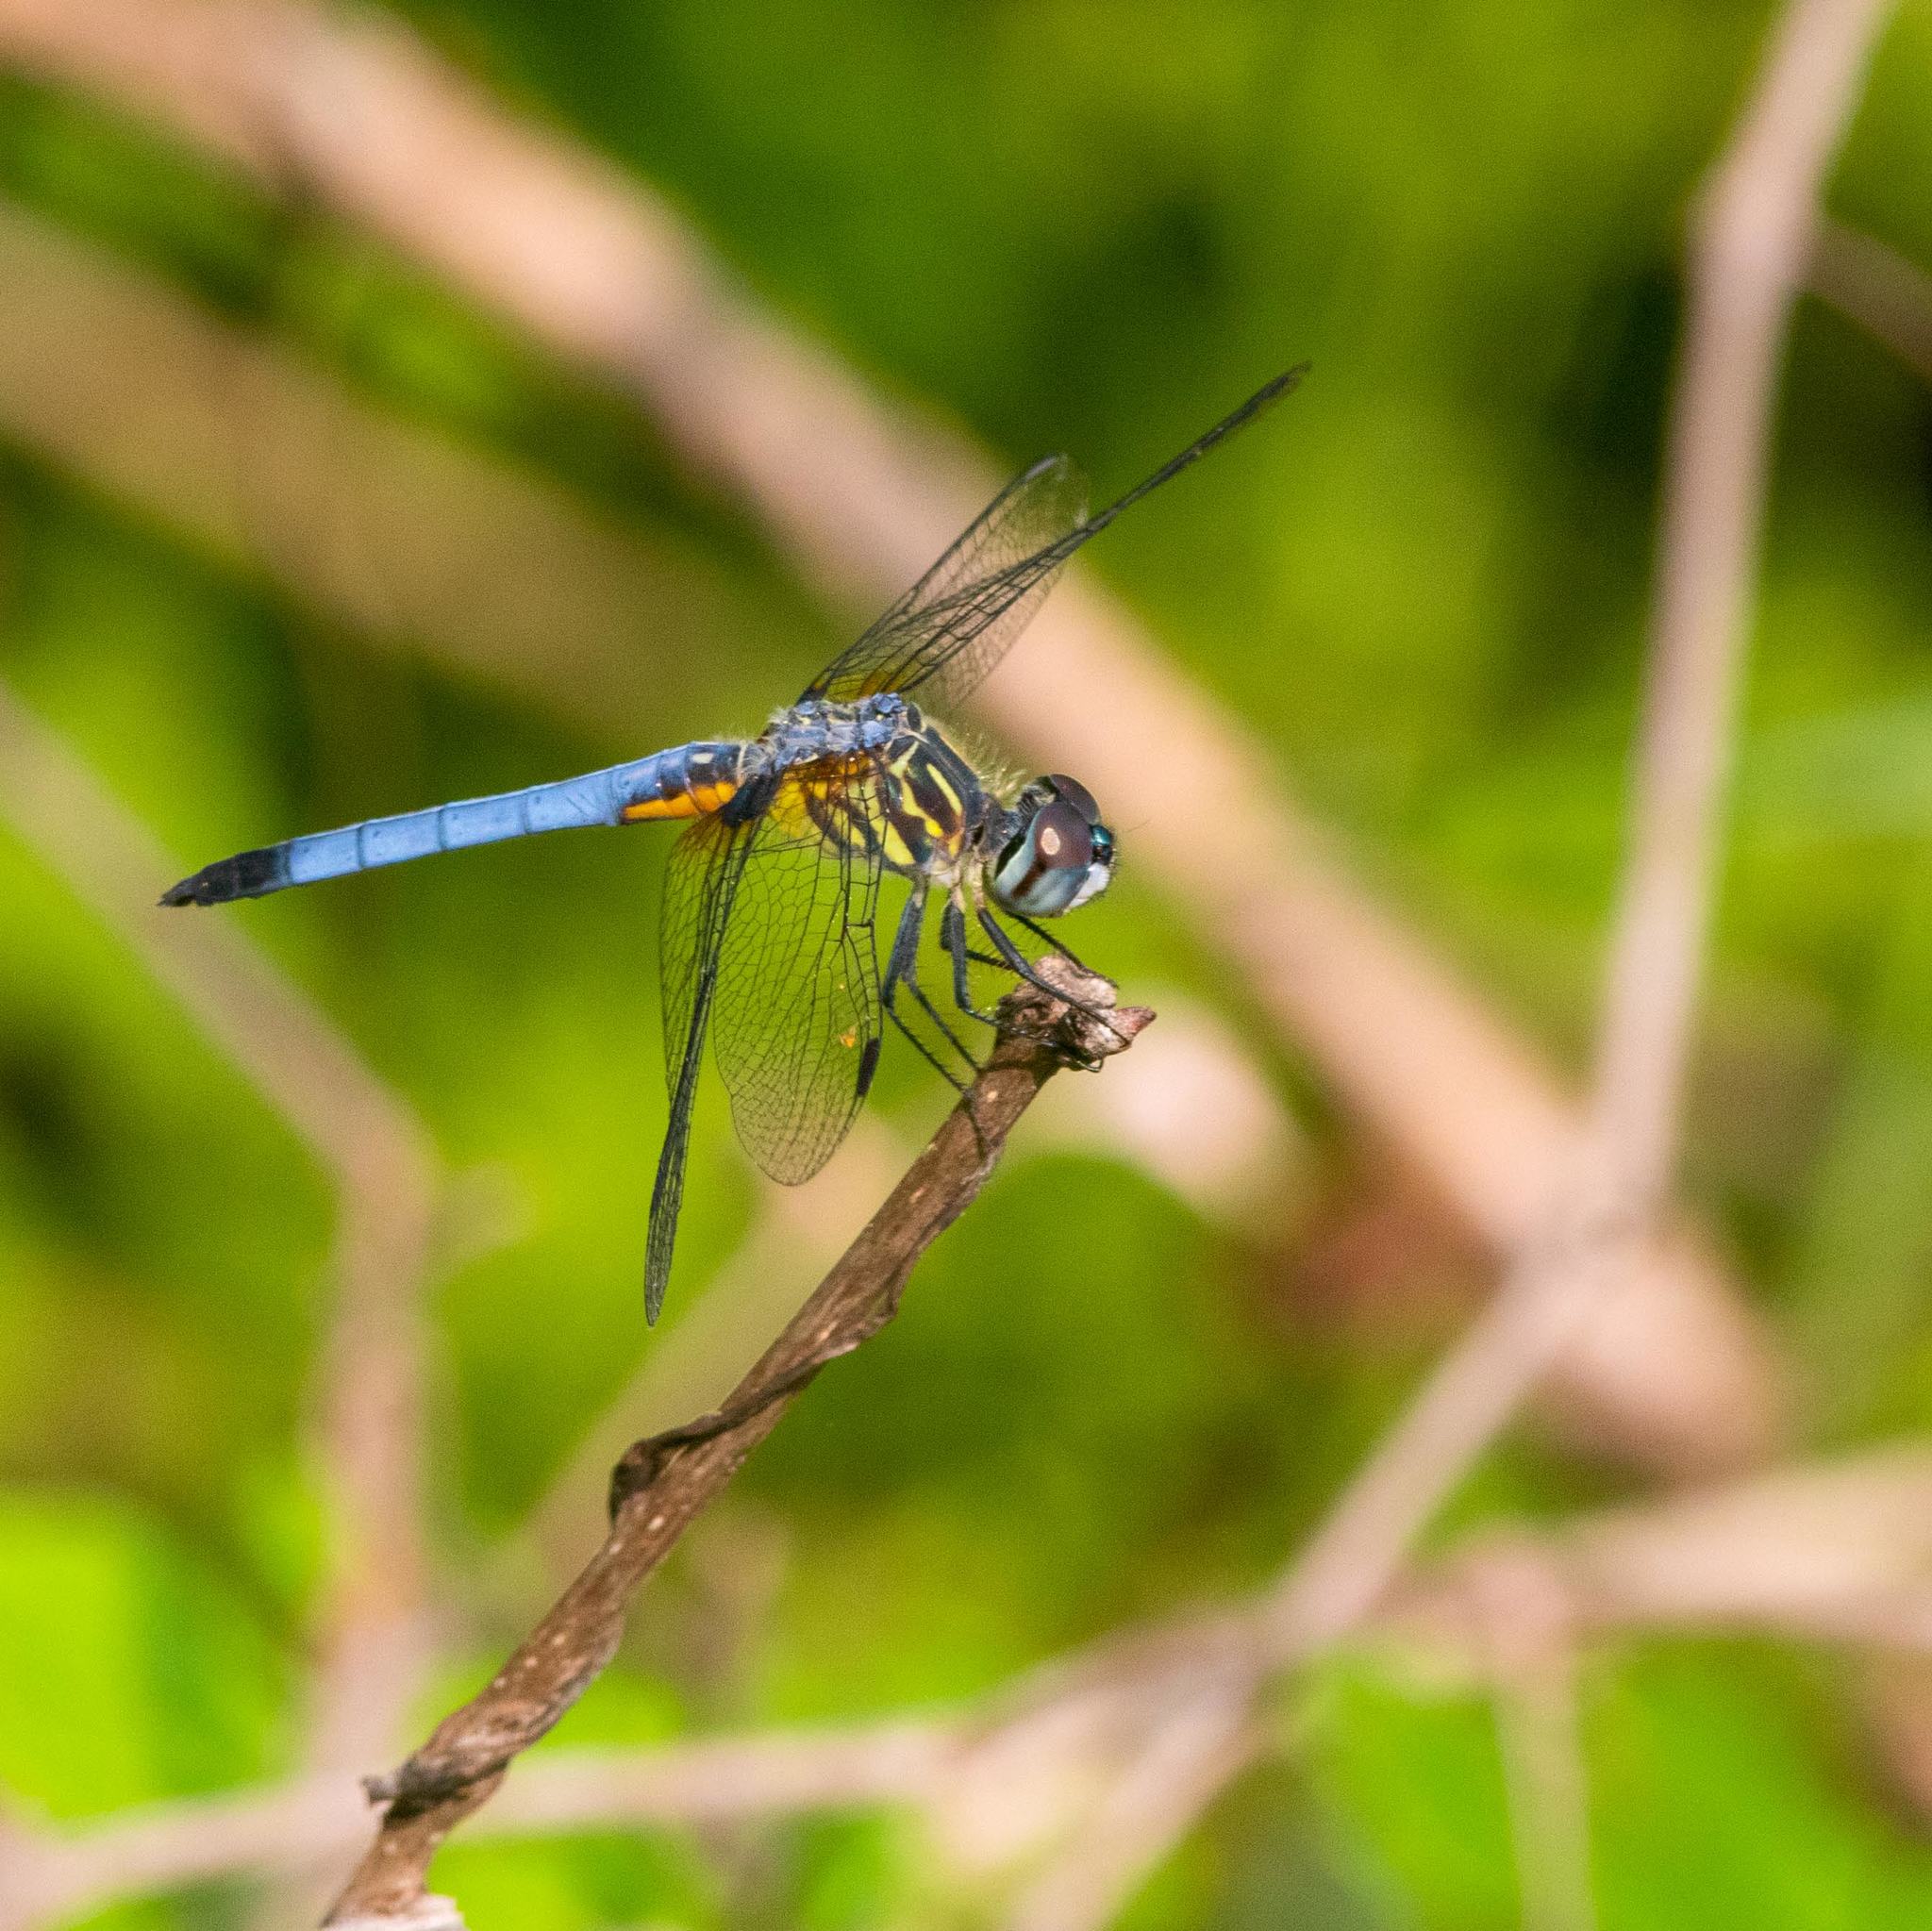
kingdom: Animalia
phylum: Arthropoda
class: Insecta
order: Odonata
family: Libellulidae
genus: Pachydiplax
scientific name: Pachydiplax longipennis
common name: Blue dasher
